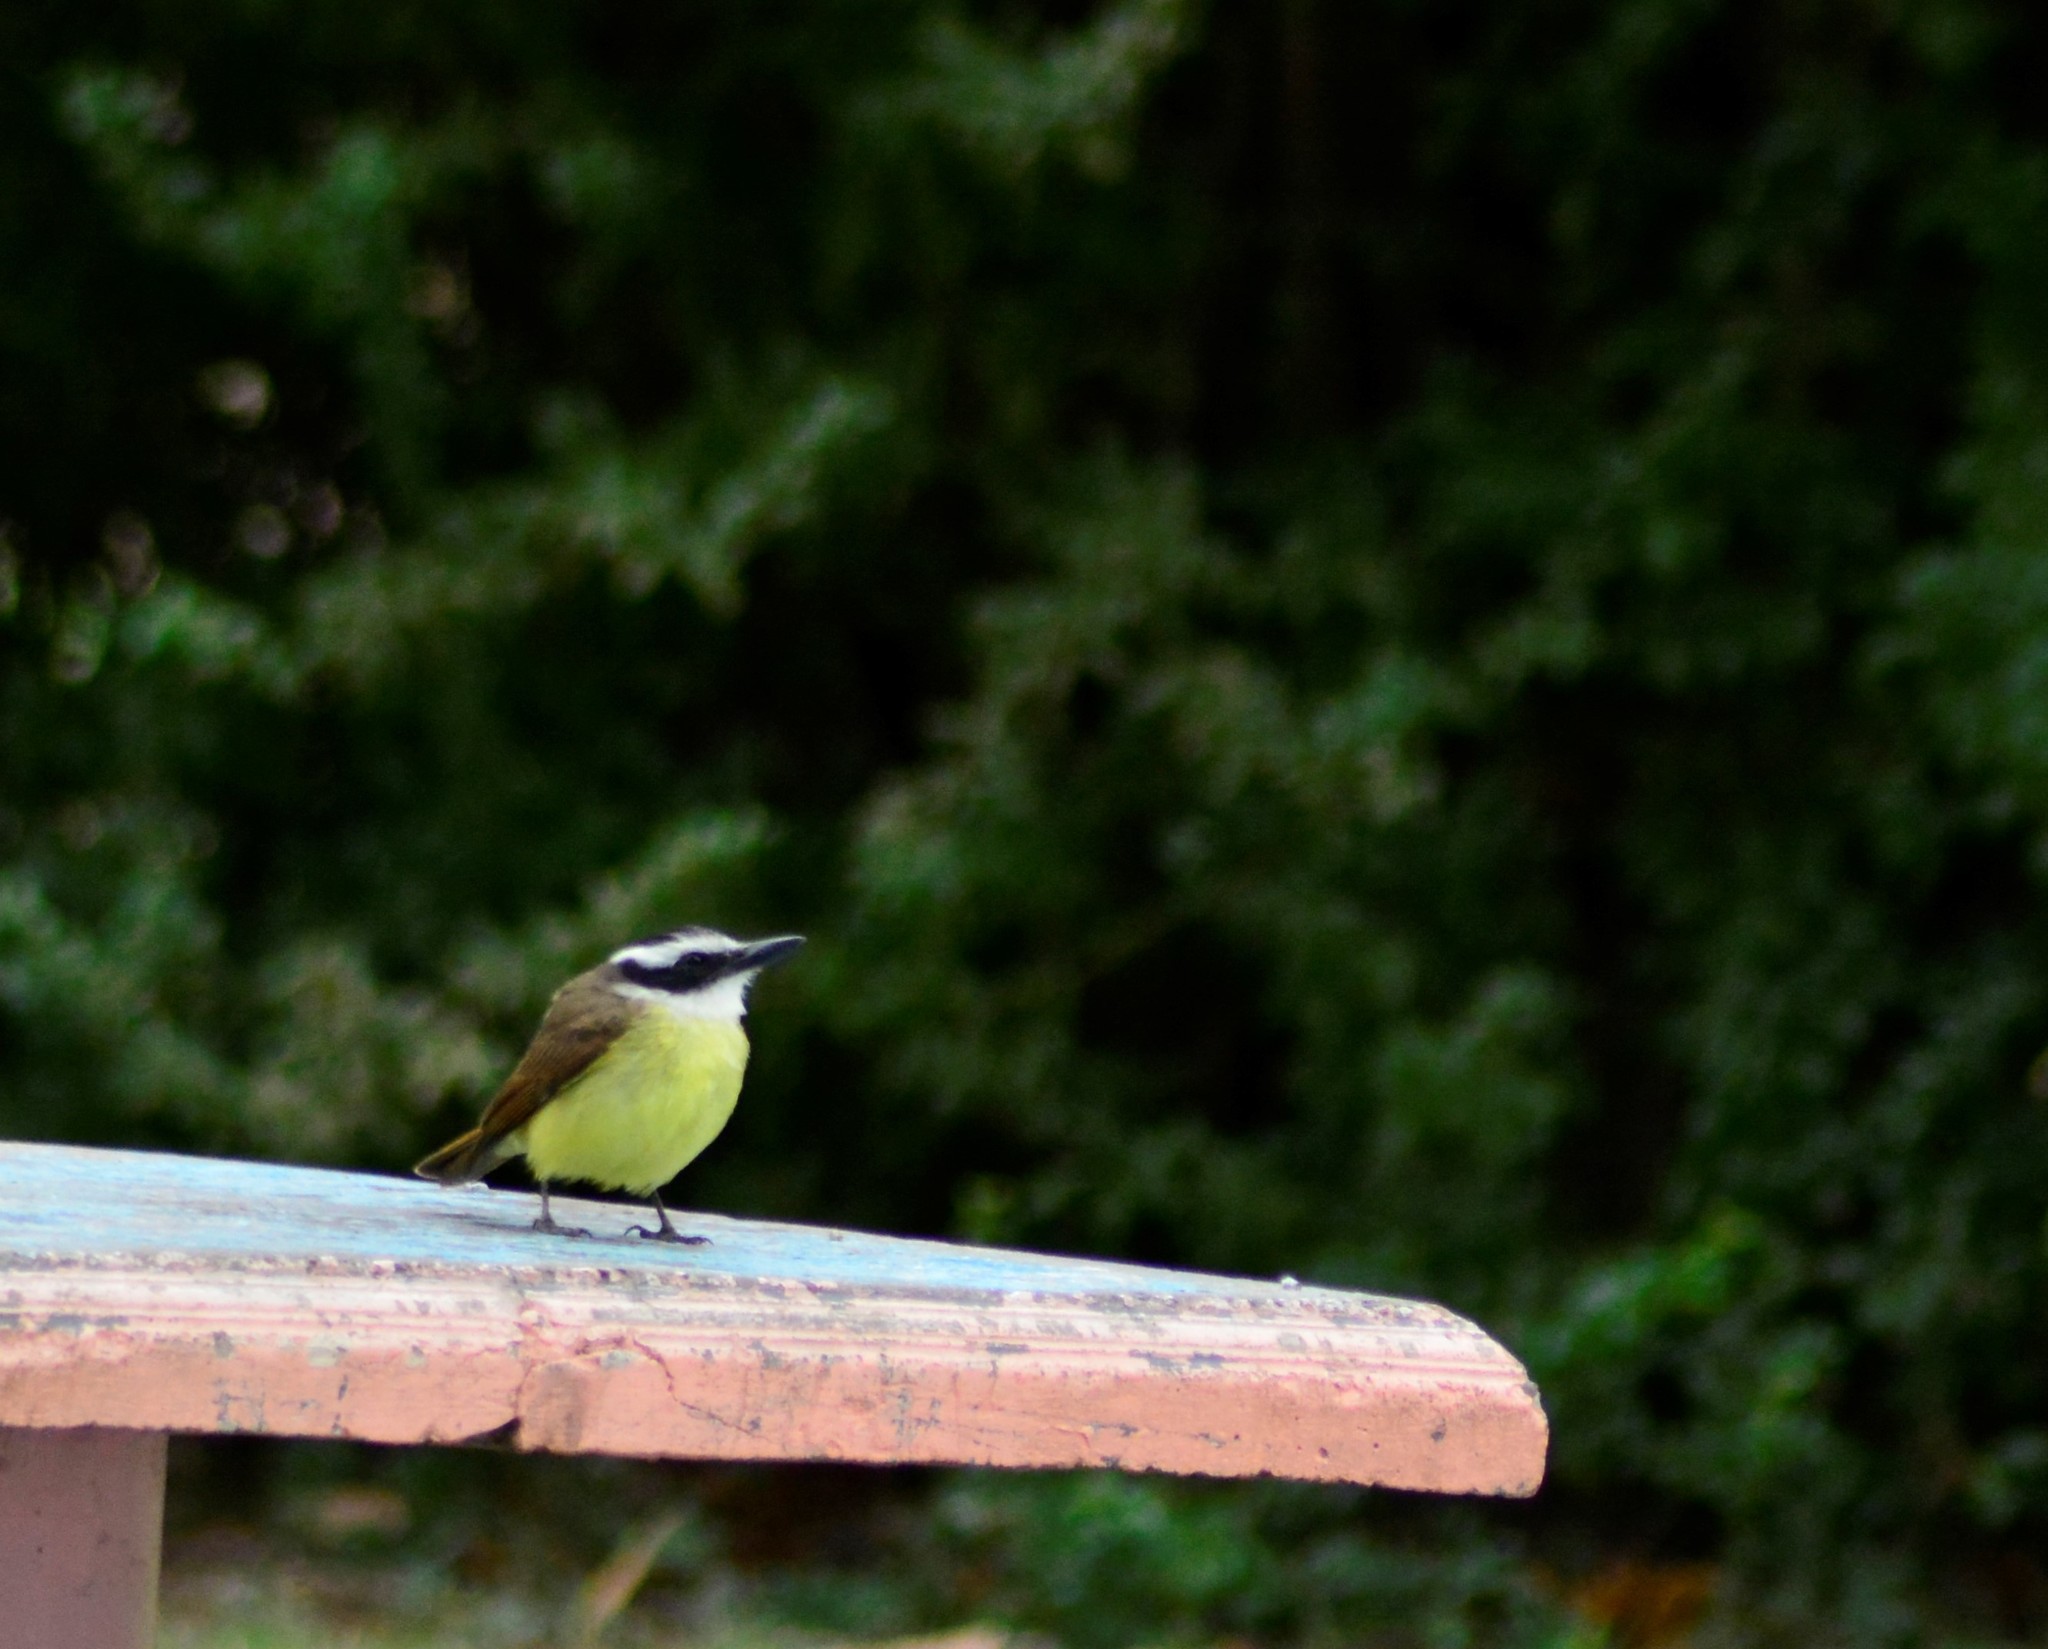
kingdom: Animalia
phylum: Chordata
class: Aves
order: Passeriformes
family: Tyrannidae
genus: Pitangus
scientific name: Pitangus sulphuratus
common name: Great kiskadee
